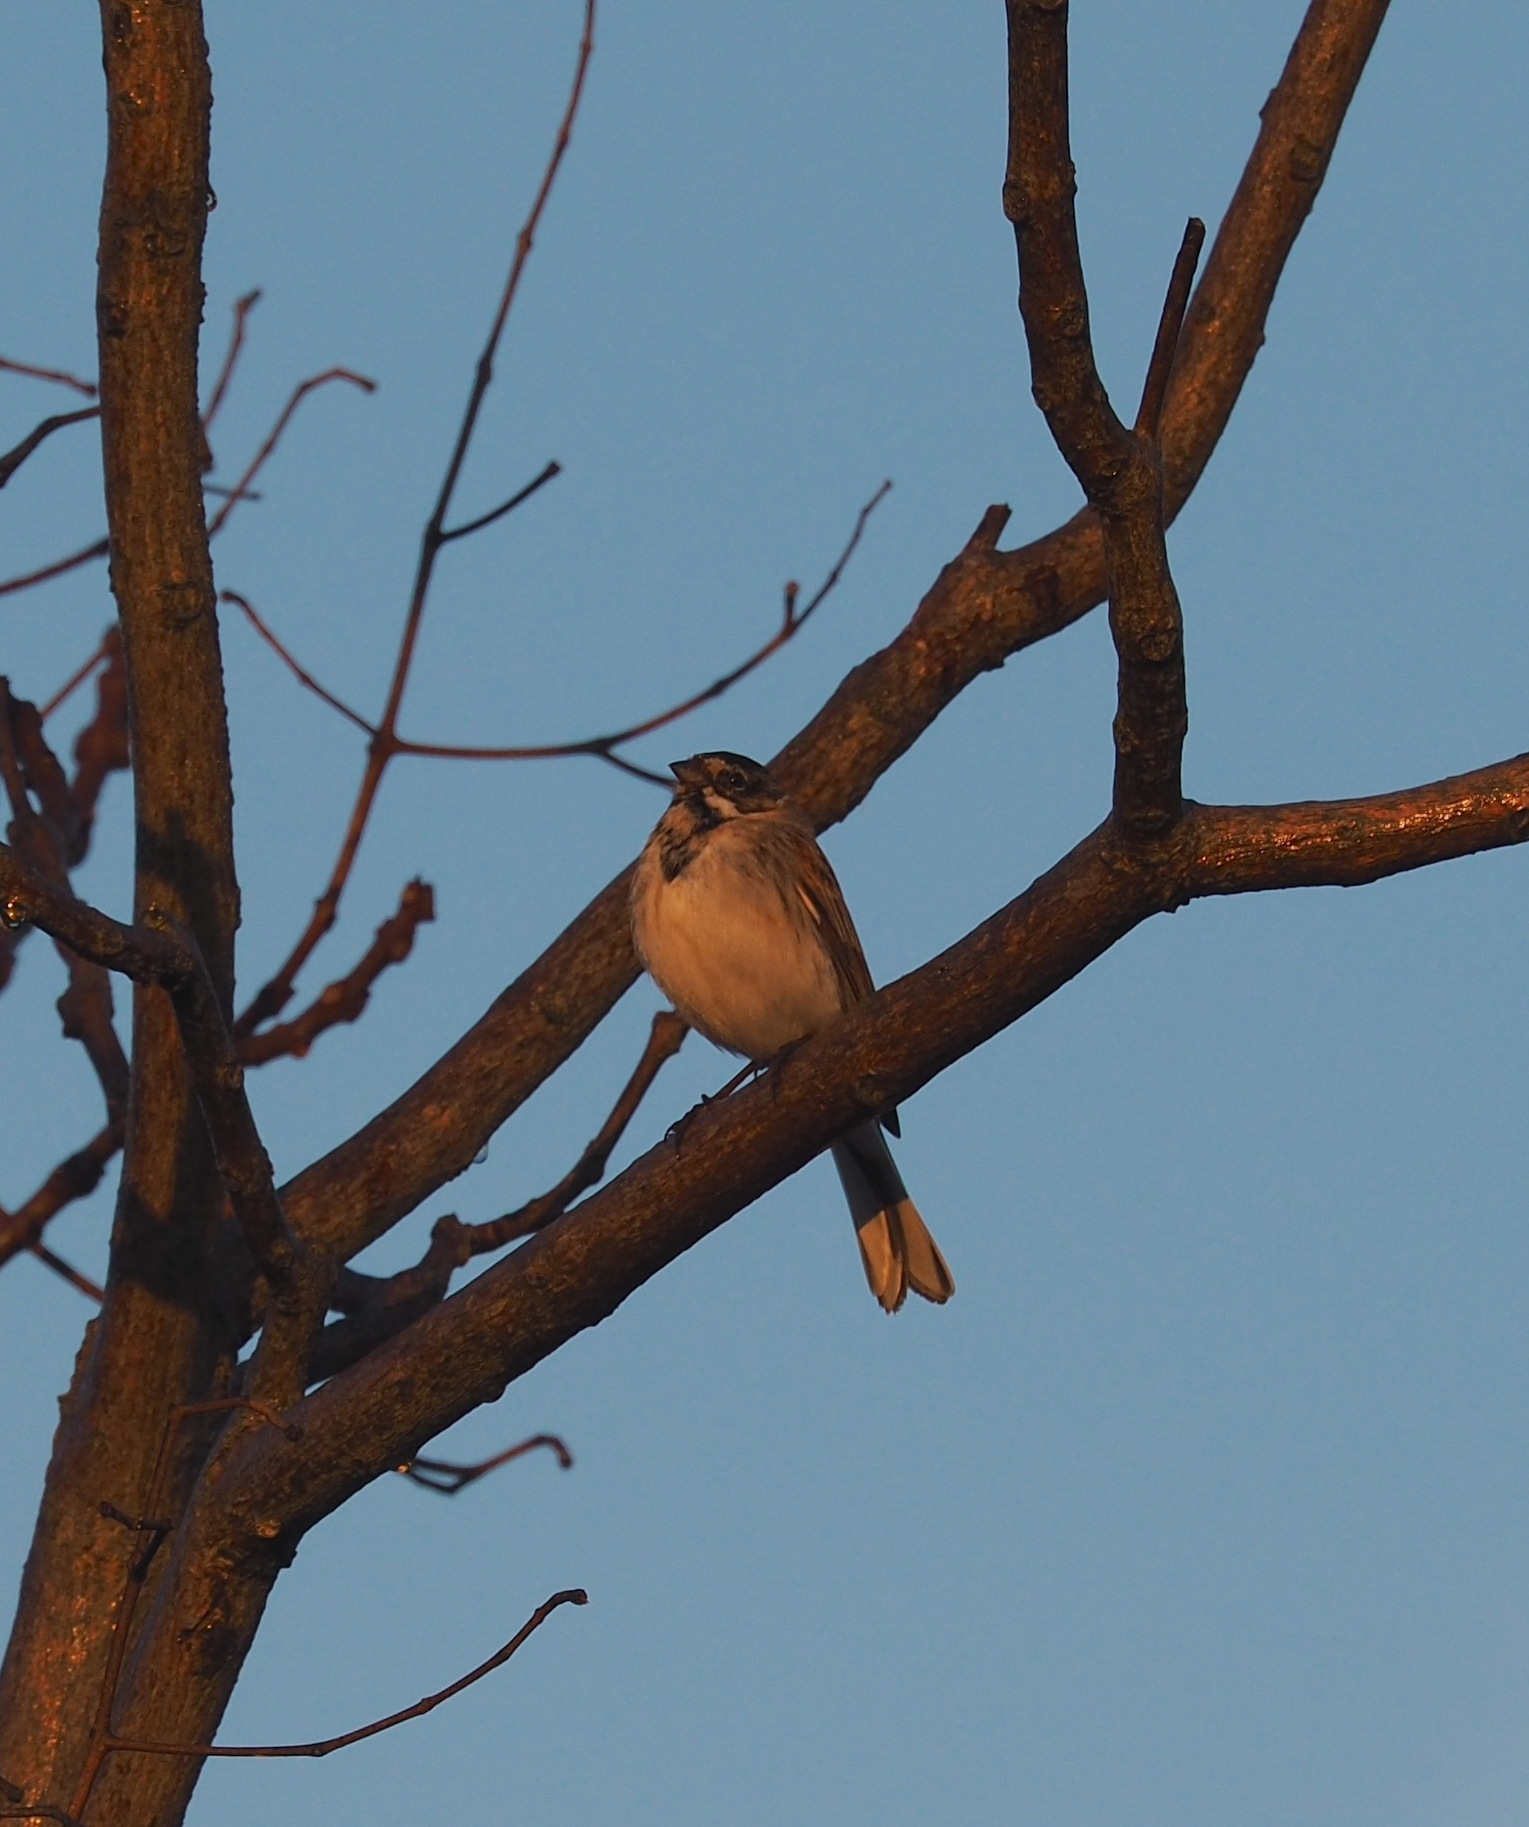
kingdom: Animalia
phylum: Chordata
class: Aves
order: Passeriformes
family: Emberizidae
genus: Emberiza
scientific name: Emberiza schoeniclus
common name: Reed bunting
